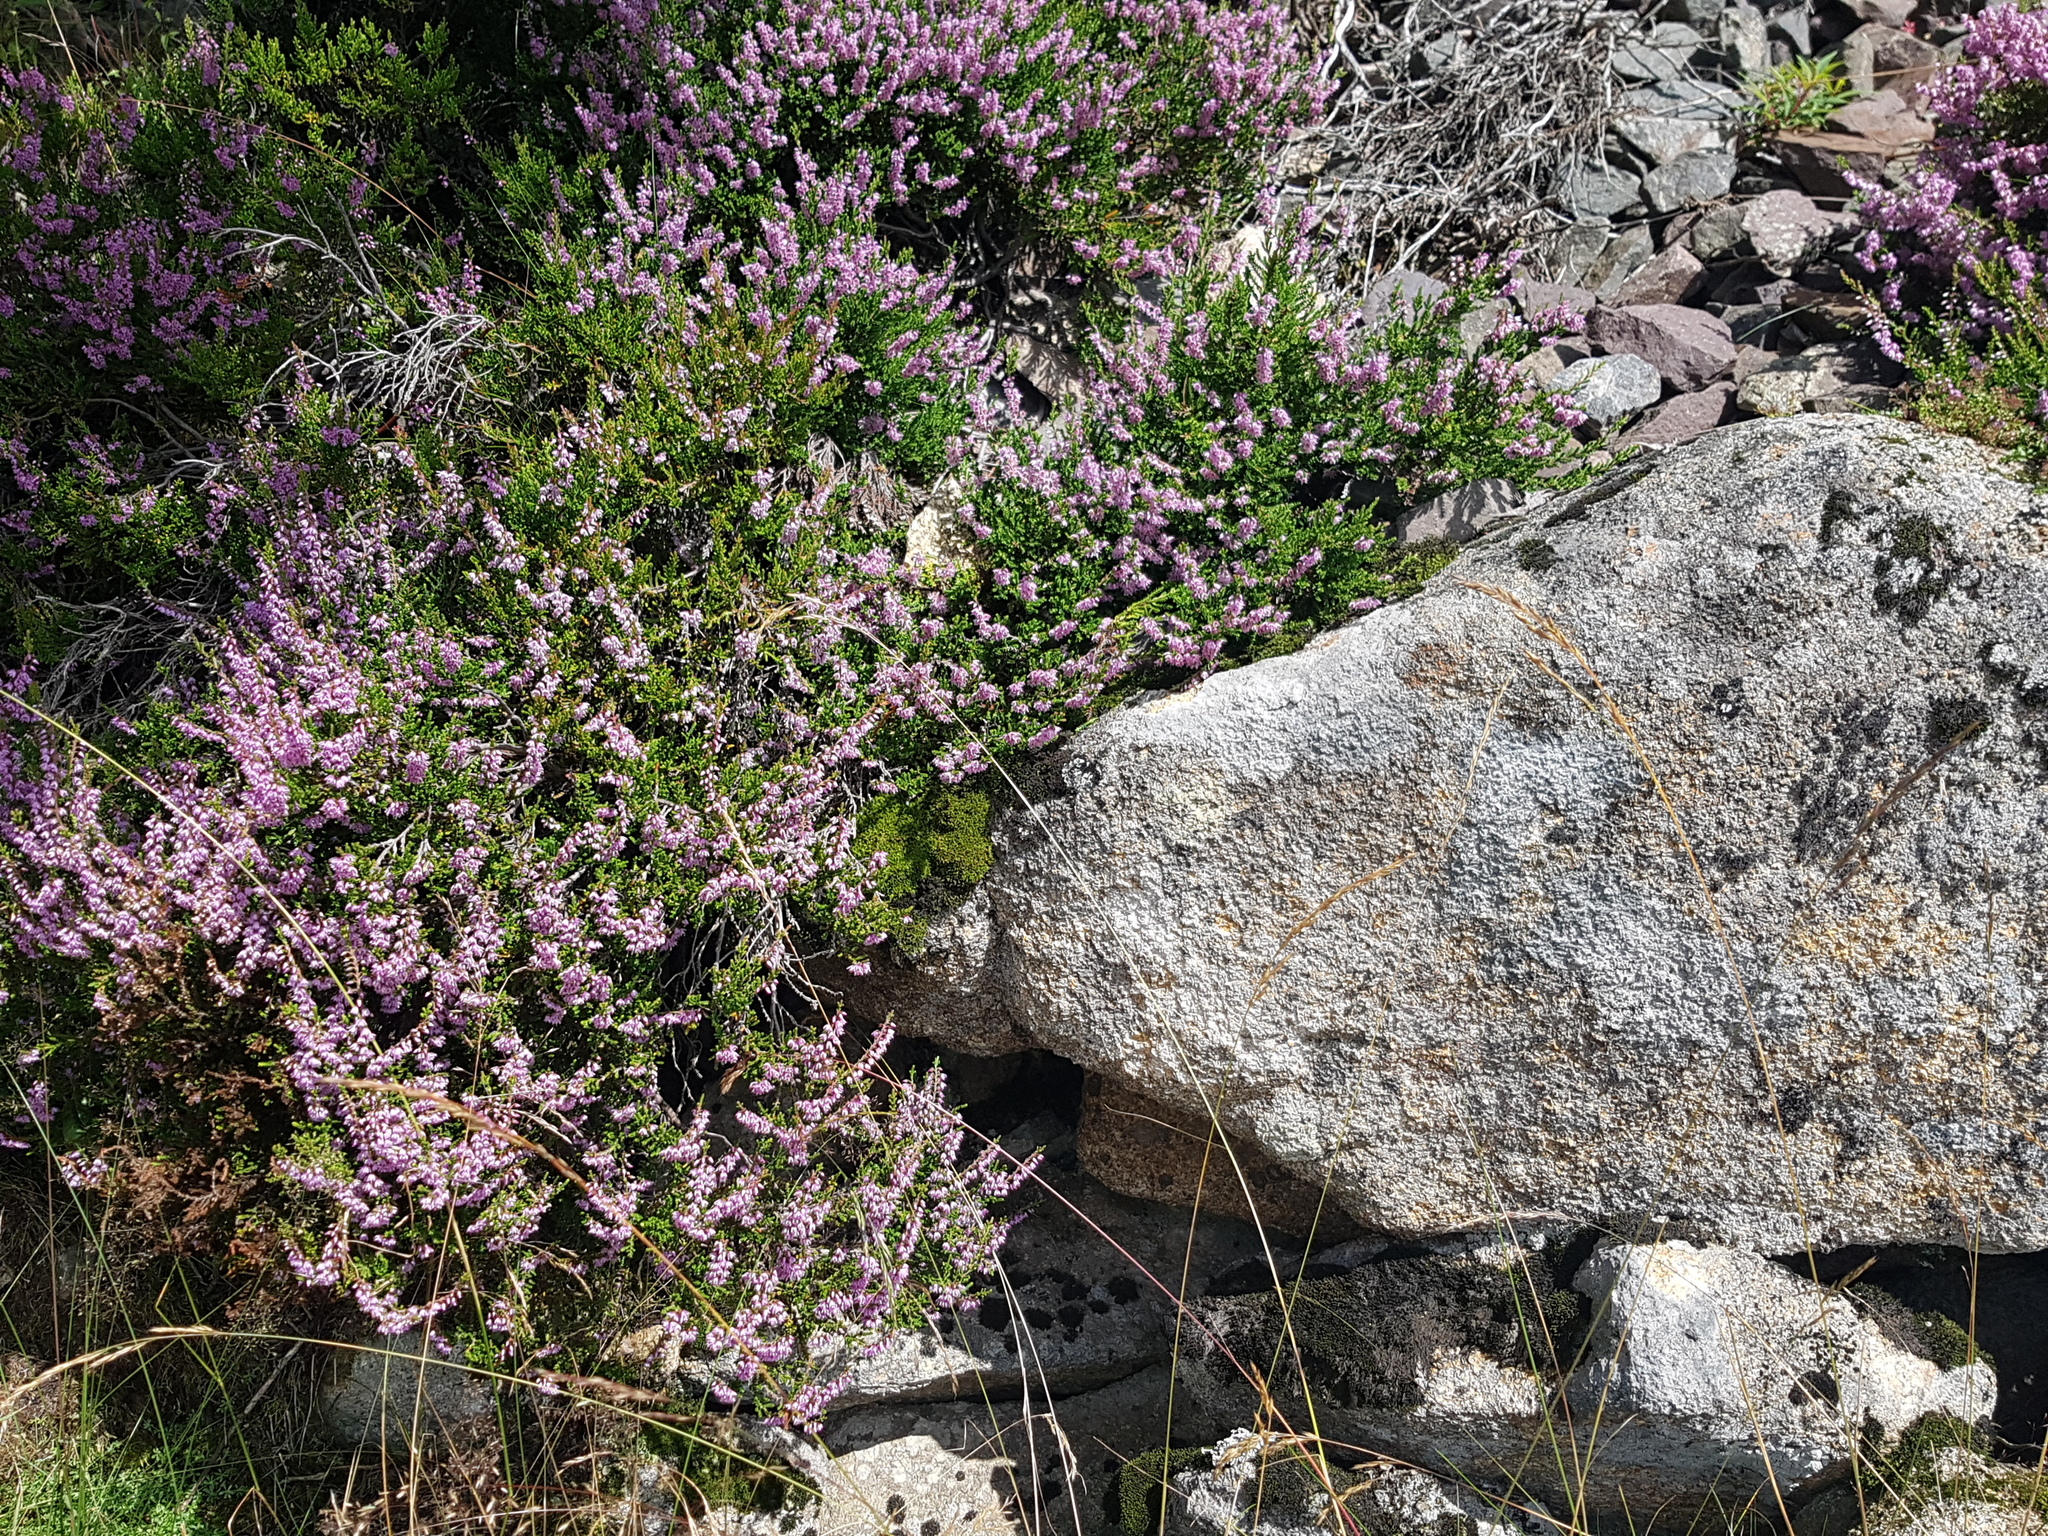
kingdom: Plantae
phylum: Tracheophyta
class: Magnoliopsida
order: Ericales
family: Ericaceae
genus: Calluna
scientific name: Calluna vulgaris
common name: Heather
